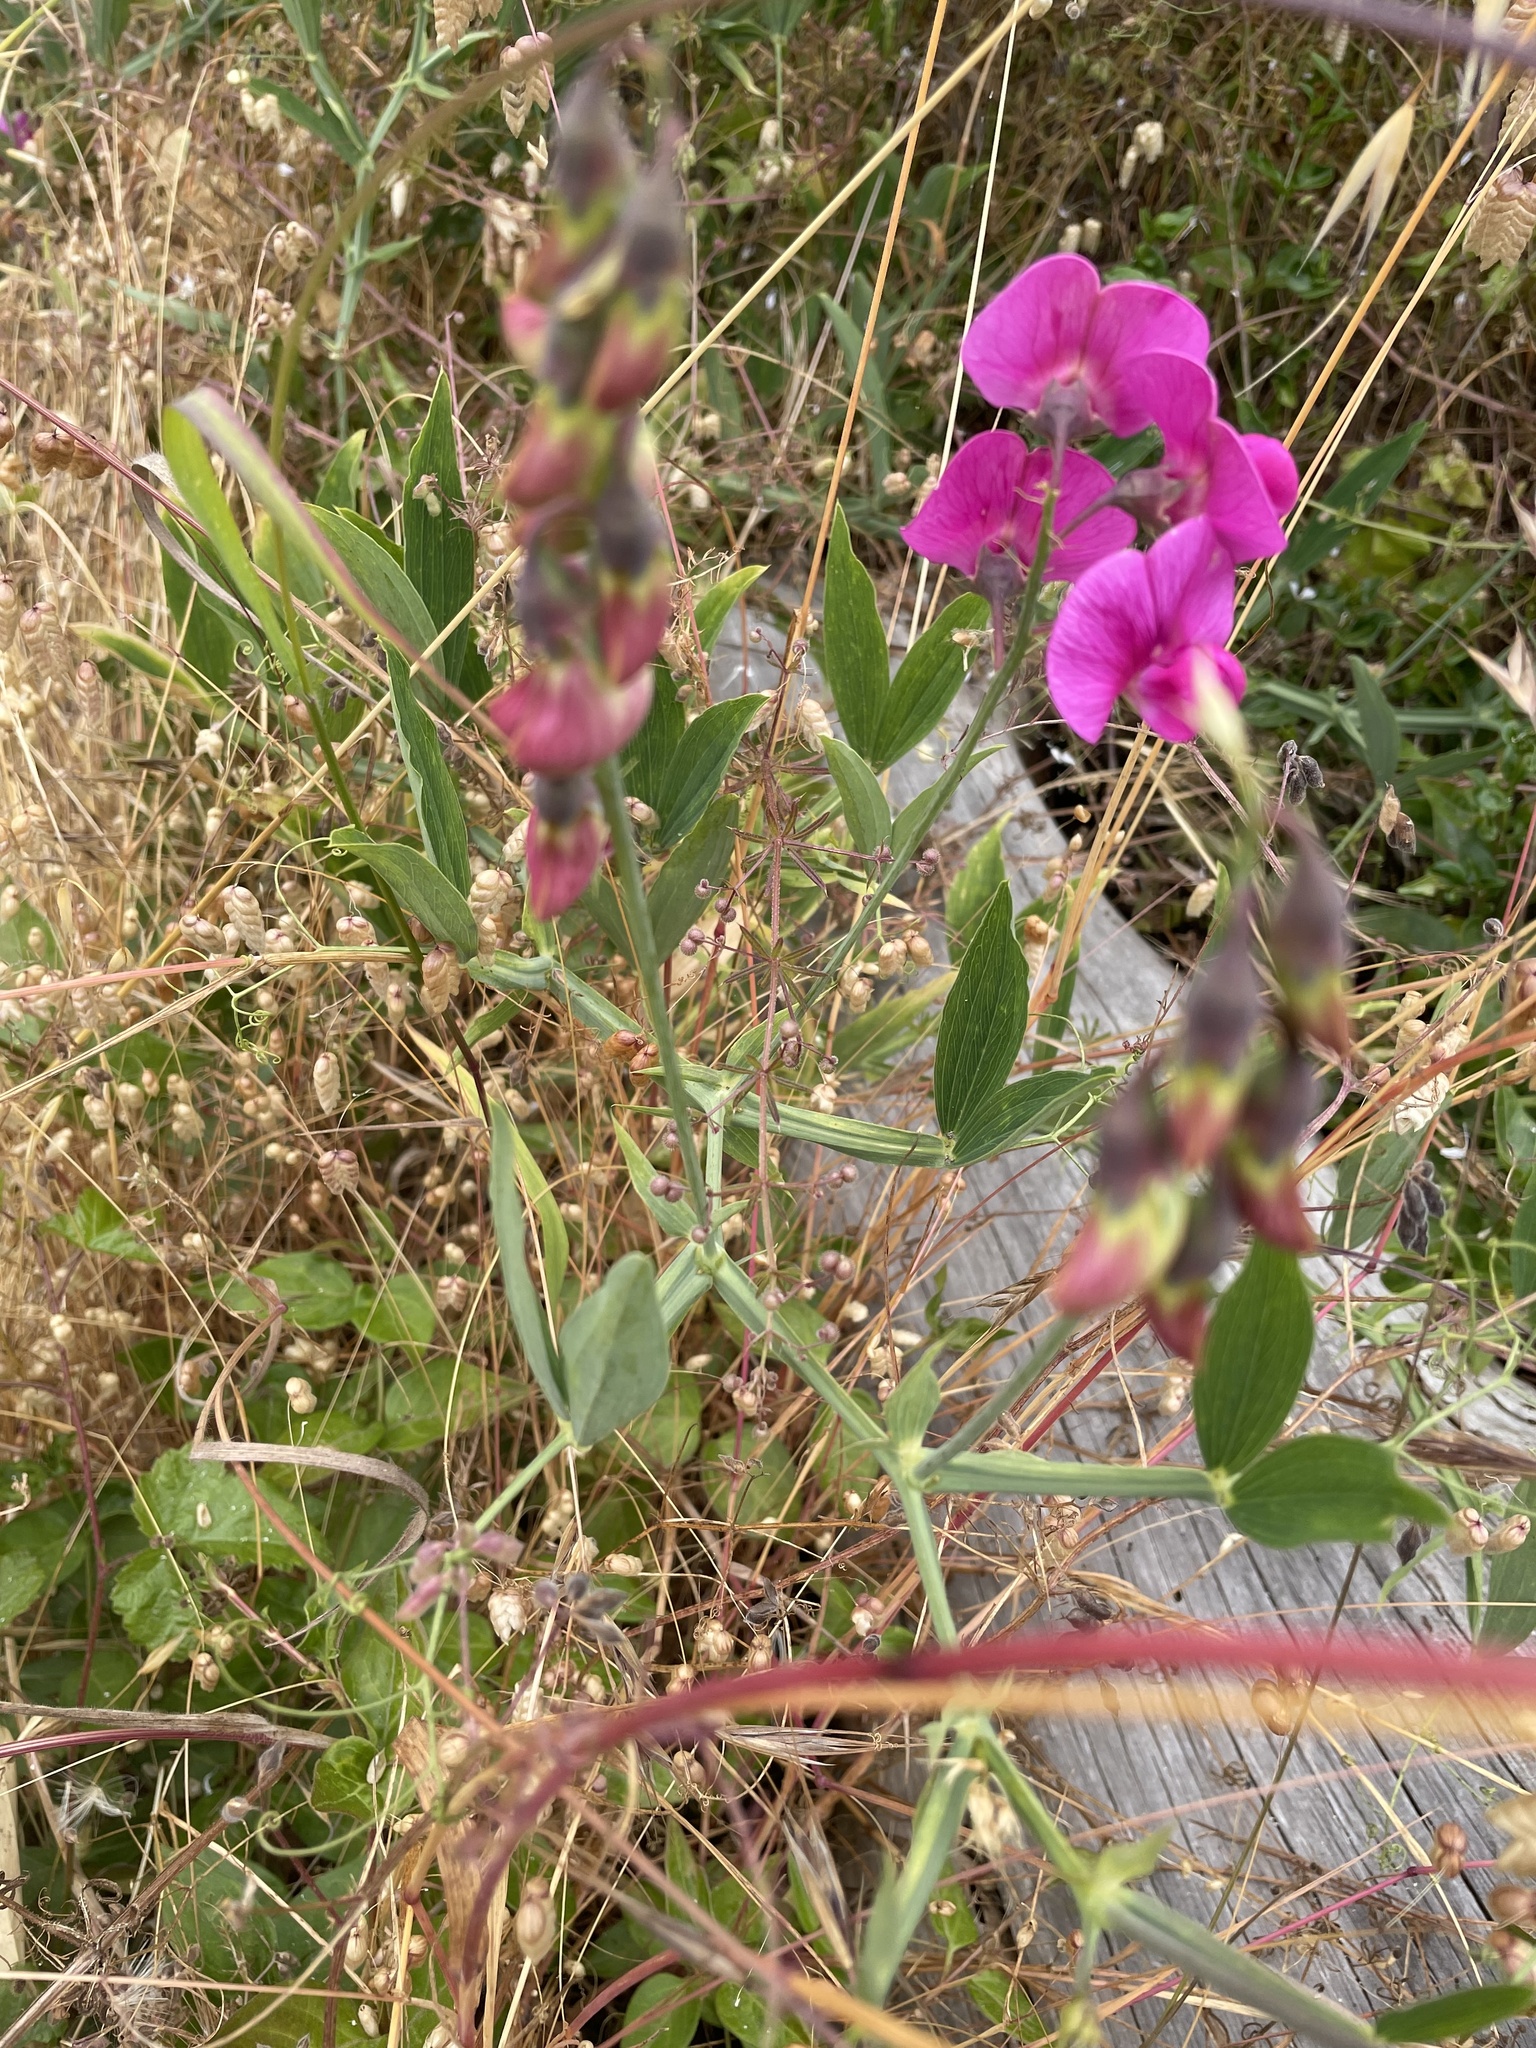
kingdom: Plantae
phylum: Tracheophyta
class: Magnoliopsida
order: Fabales
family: Fabaceae
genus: Lathyrus
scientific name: Lathyrus latifolius
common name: Perennial pea
